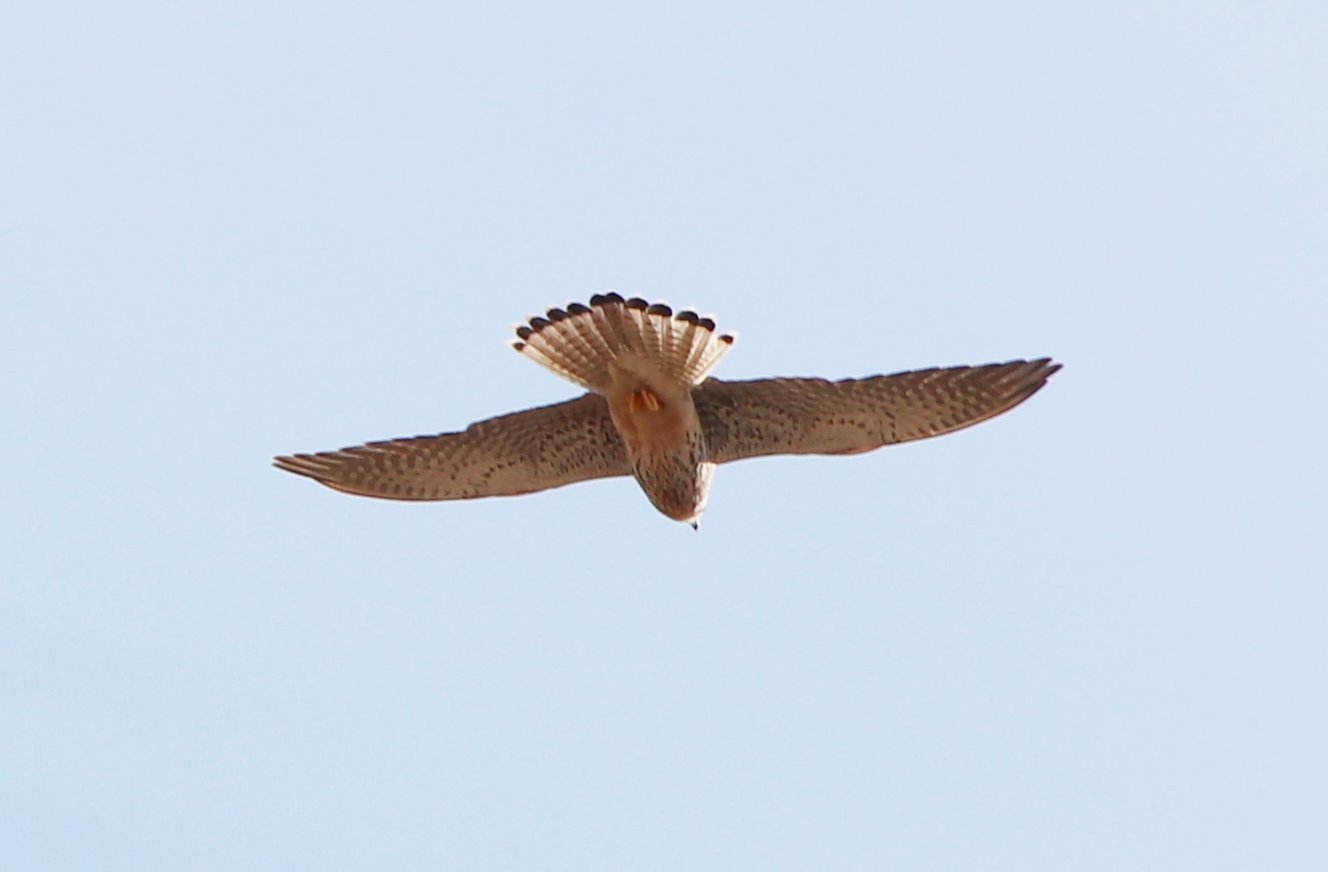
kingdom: Animalia
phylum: Chordata
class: Aves
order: Falconiformes
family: Falconidae
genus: Falco
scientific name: Falco tinnunculus
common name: Common kestrel
